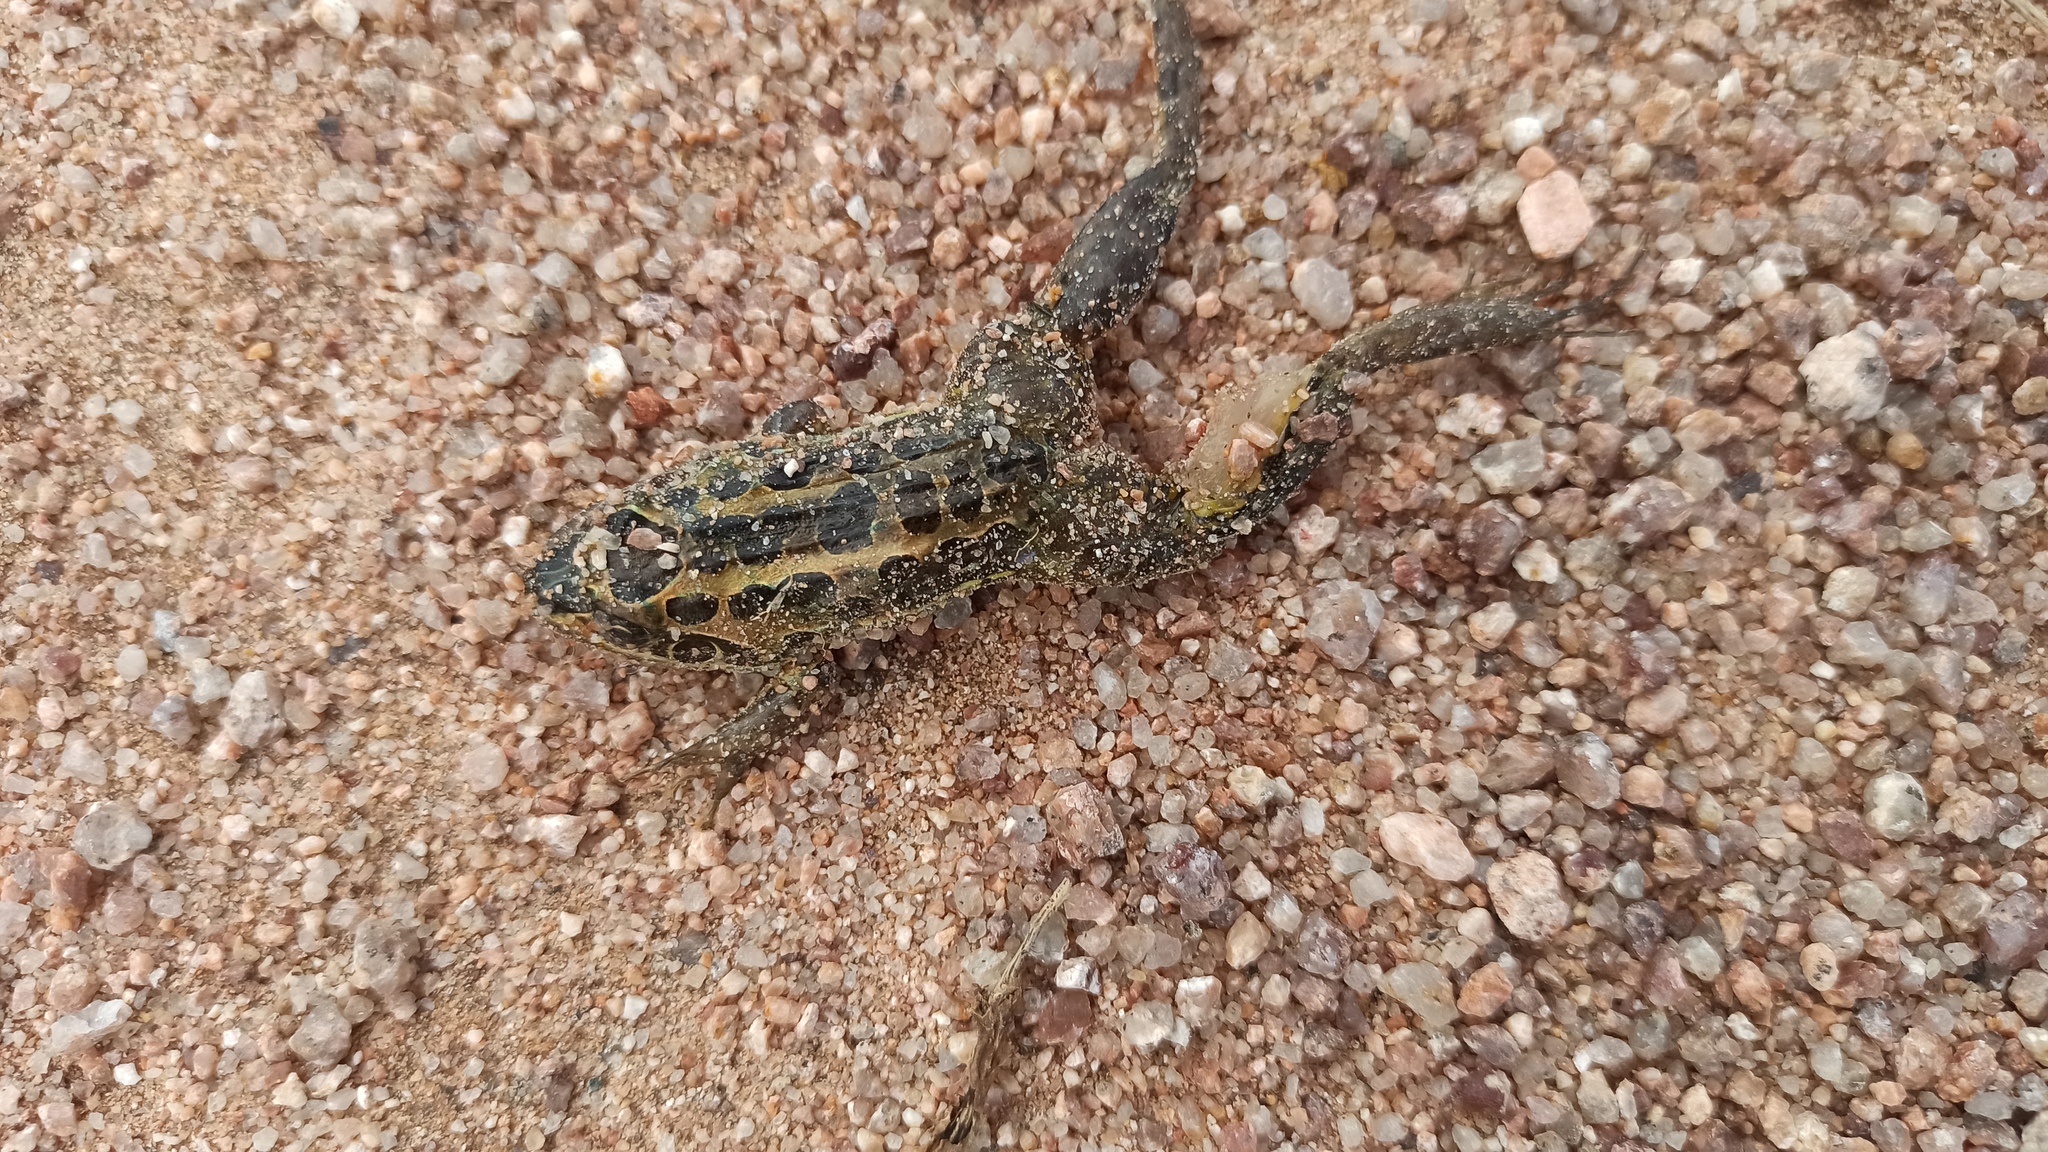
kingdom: Animalia
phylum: Chordata
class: Amphibia
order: Anura
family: Leptodactylidae
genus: Leptodactylus
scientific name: Leptodactylus luctator
